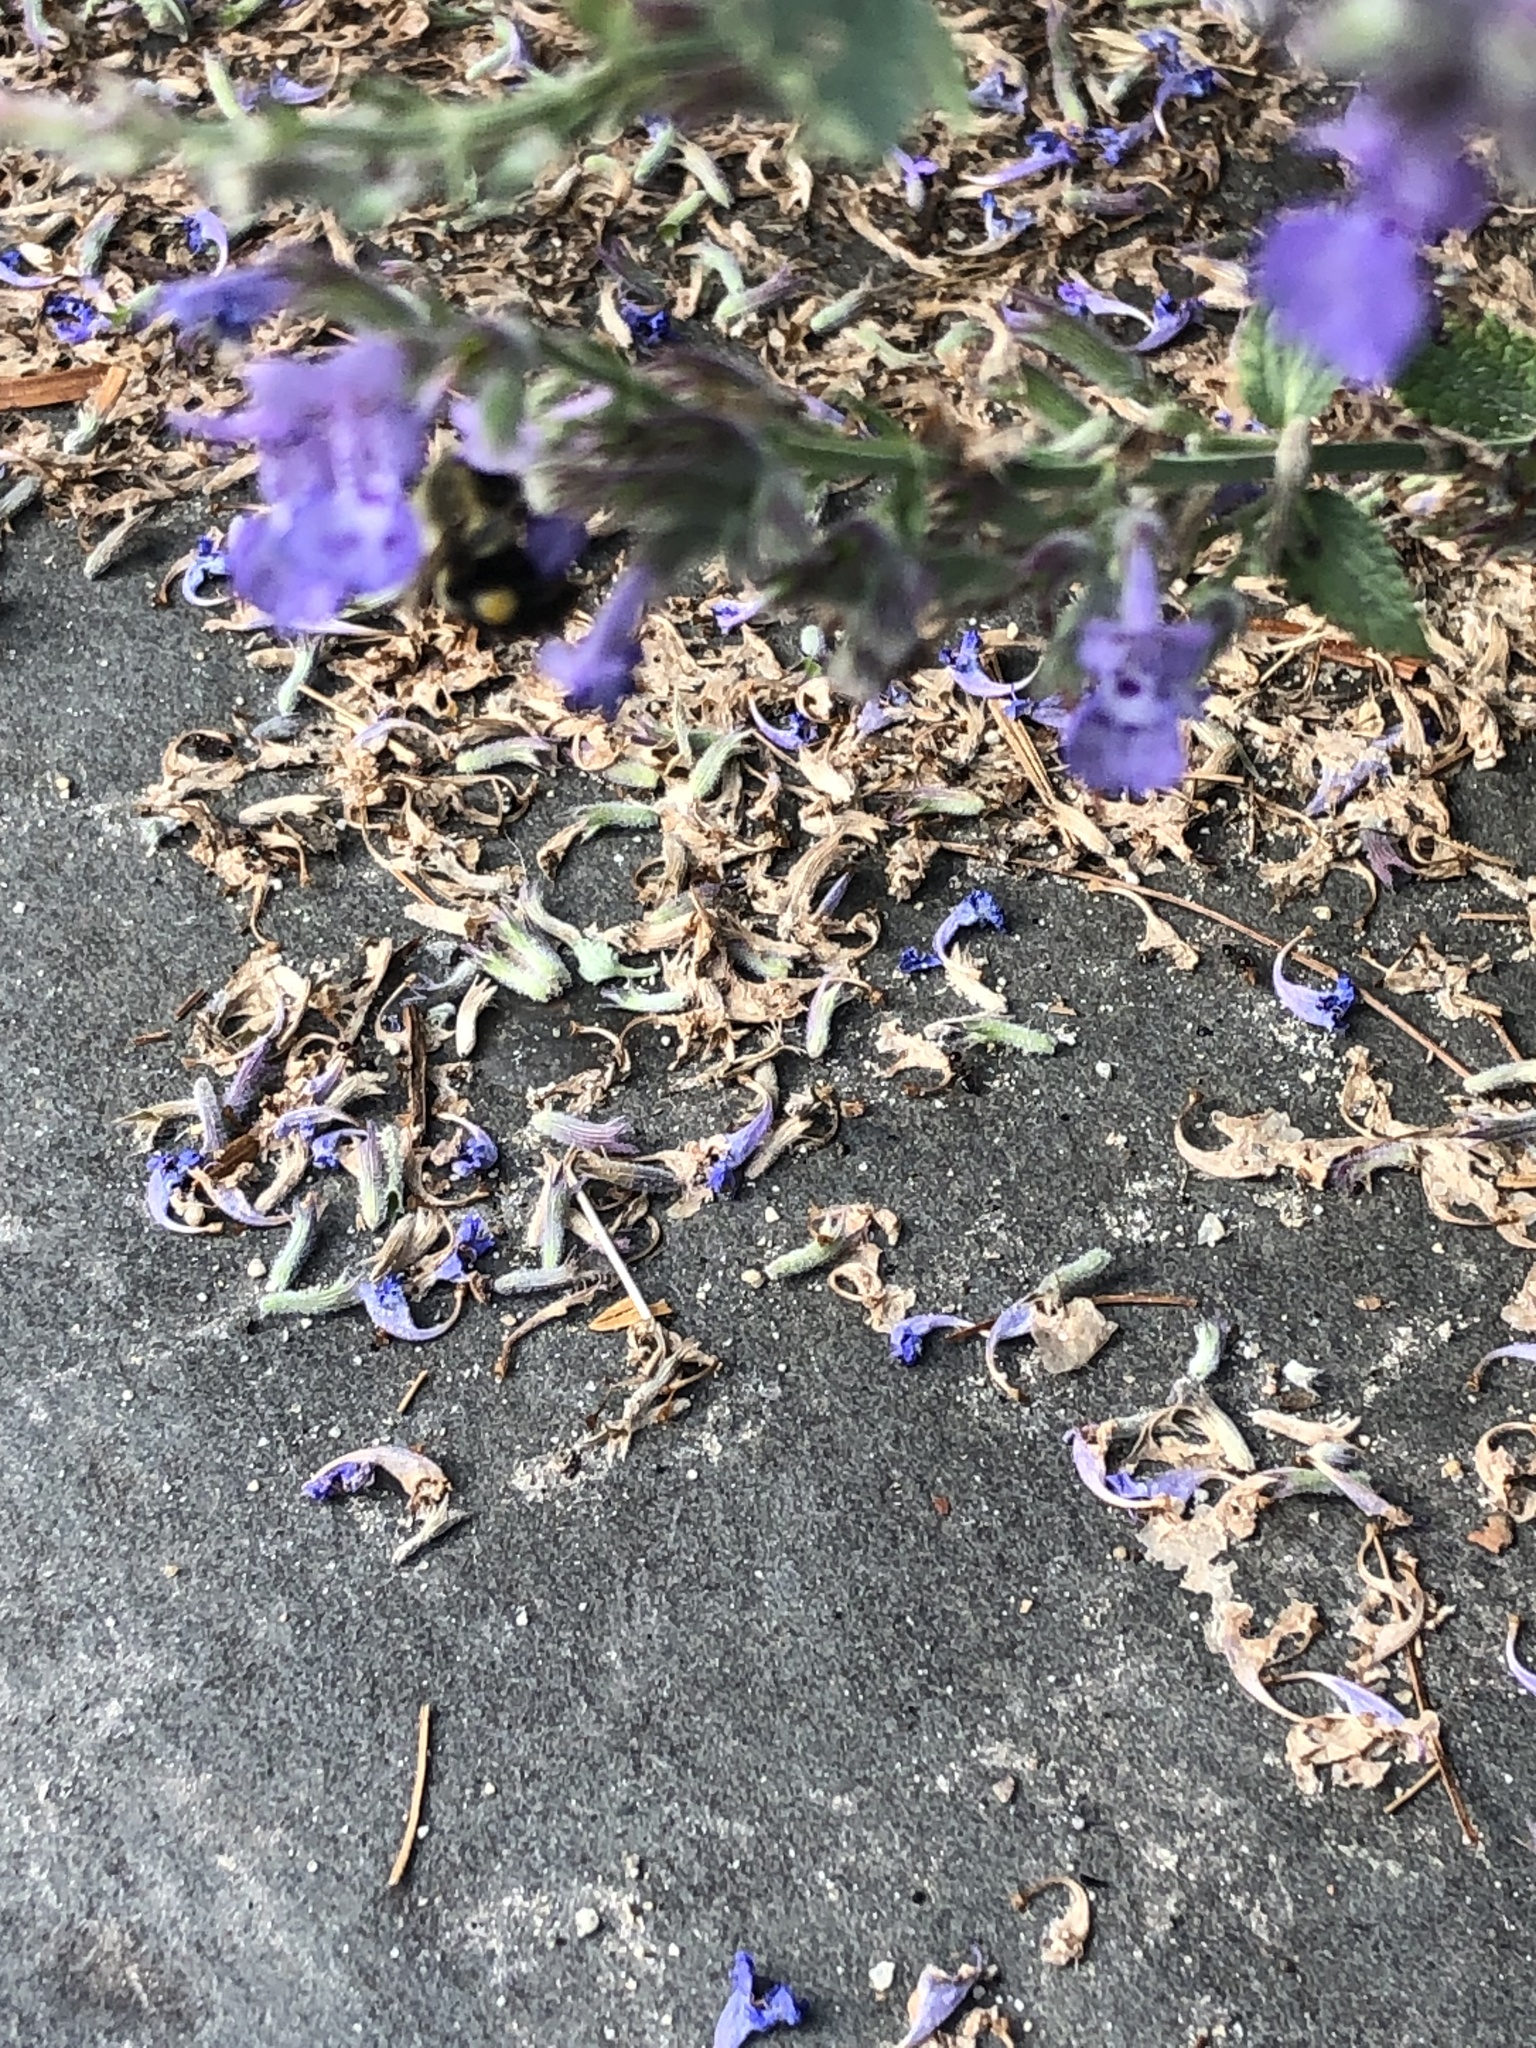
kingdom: Animalia
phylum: Arthropoda
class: Insecta
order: Hymenoptera
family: Apidae
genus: Bombus
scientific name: Bombus impatiens
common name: Common eastern bumble bee
